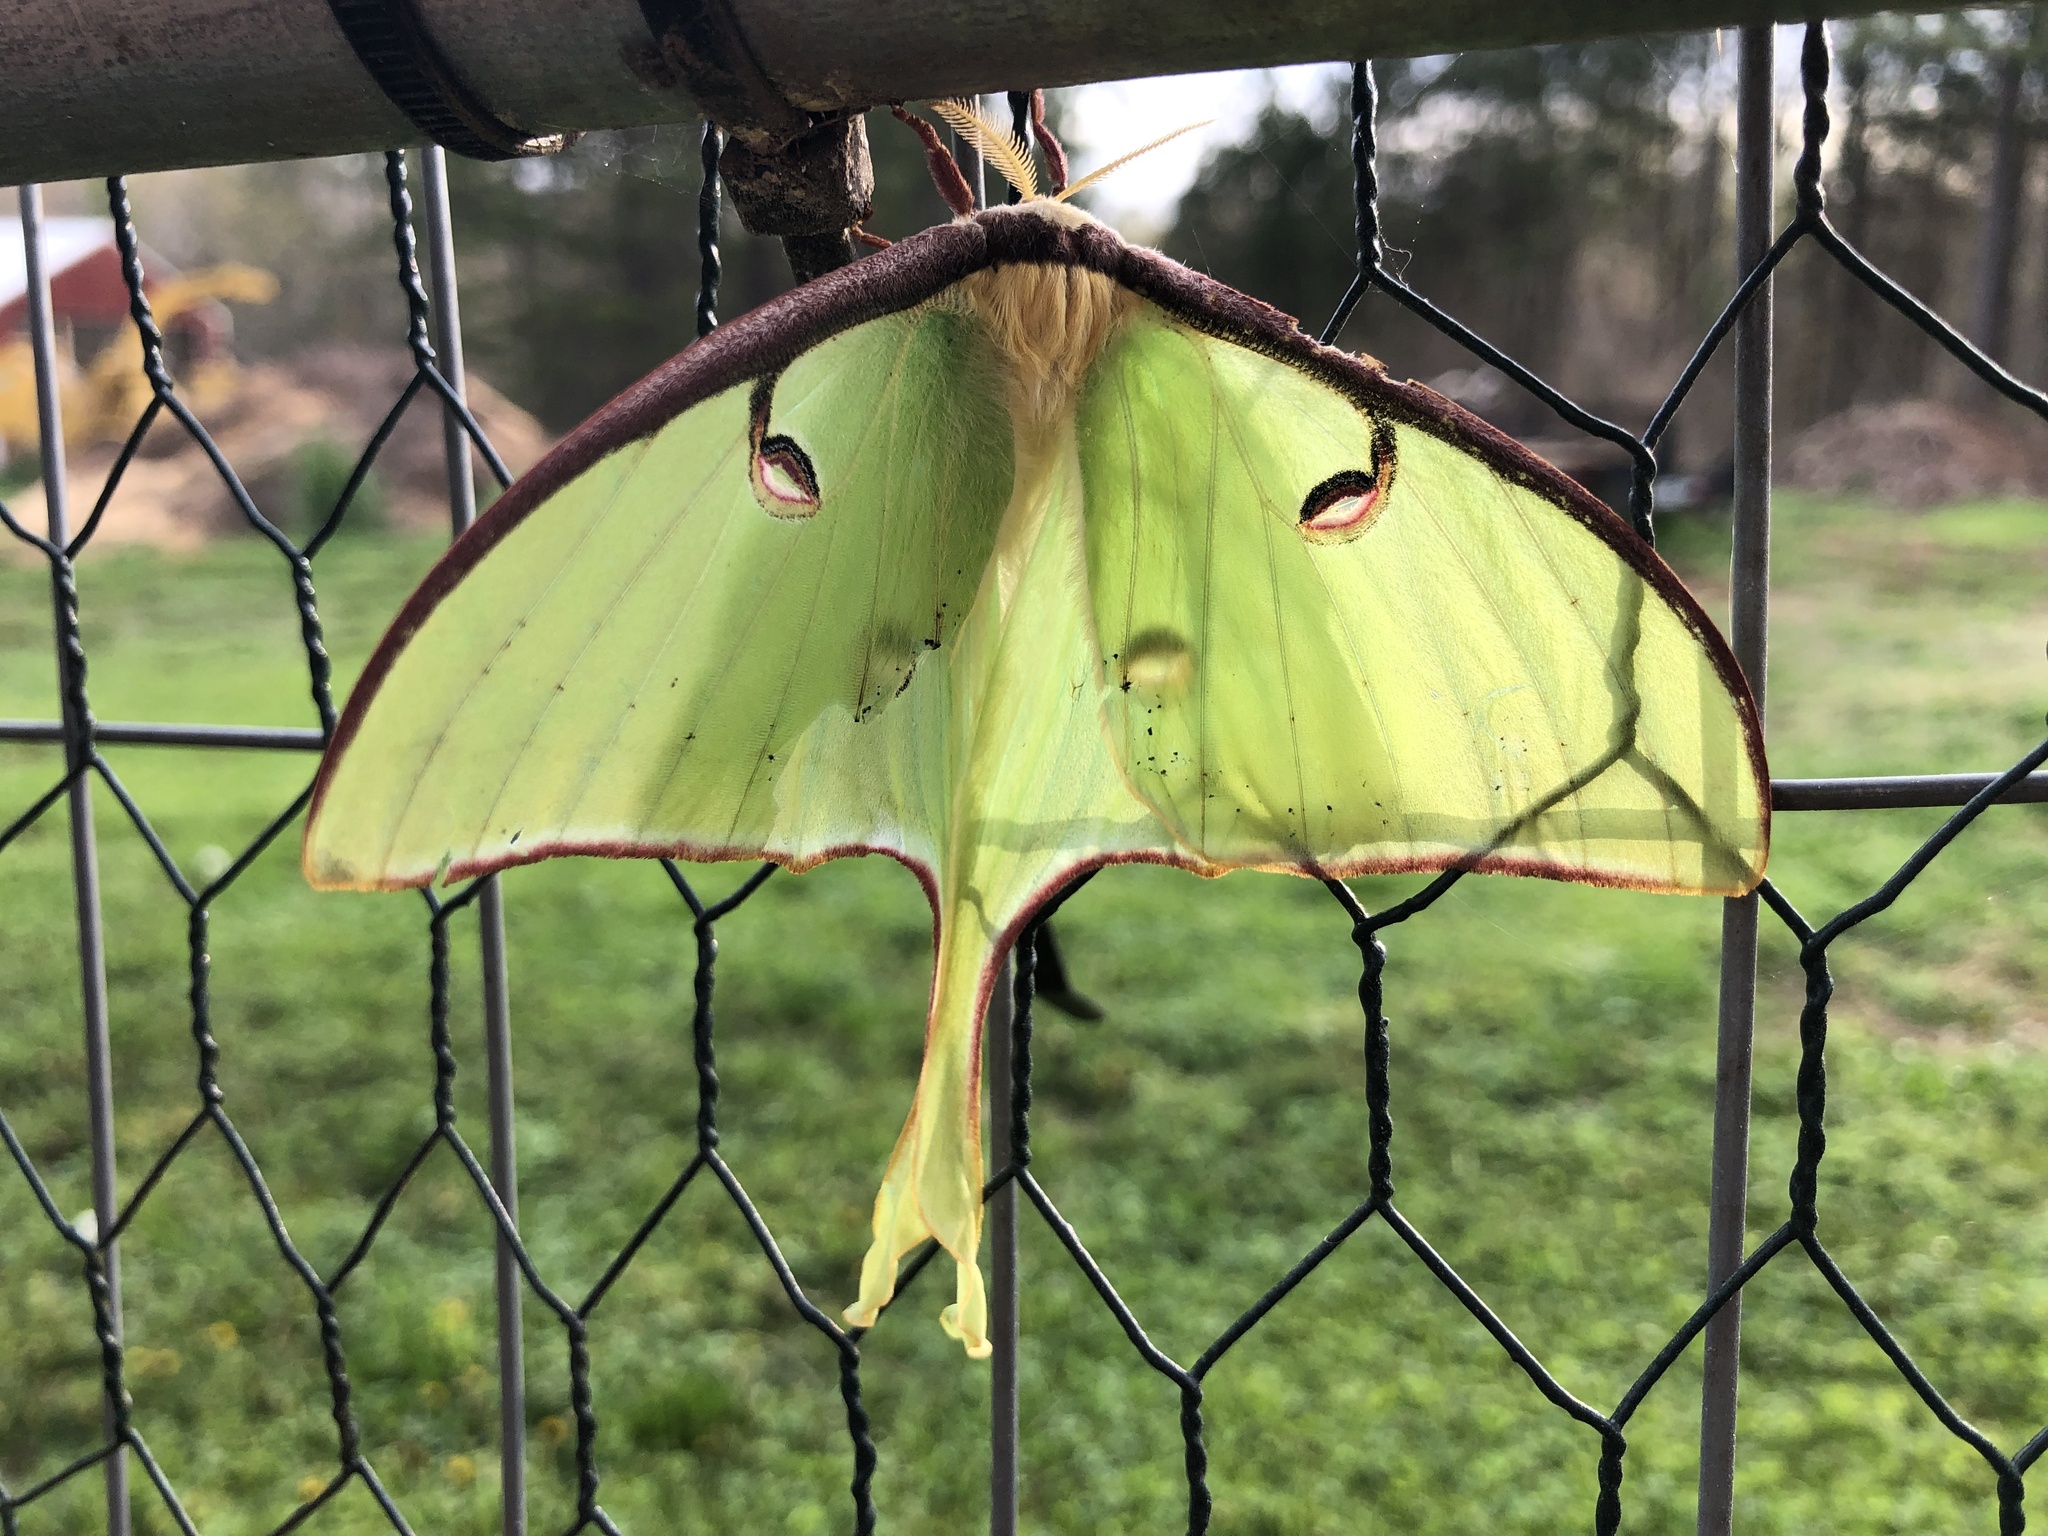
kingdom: Animalia
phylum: Arthropoda
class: Insecta
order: Lepidoptera
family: Saturniidae
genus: Actias
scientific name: Actias luna
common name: Luna moth
